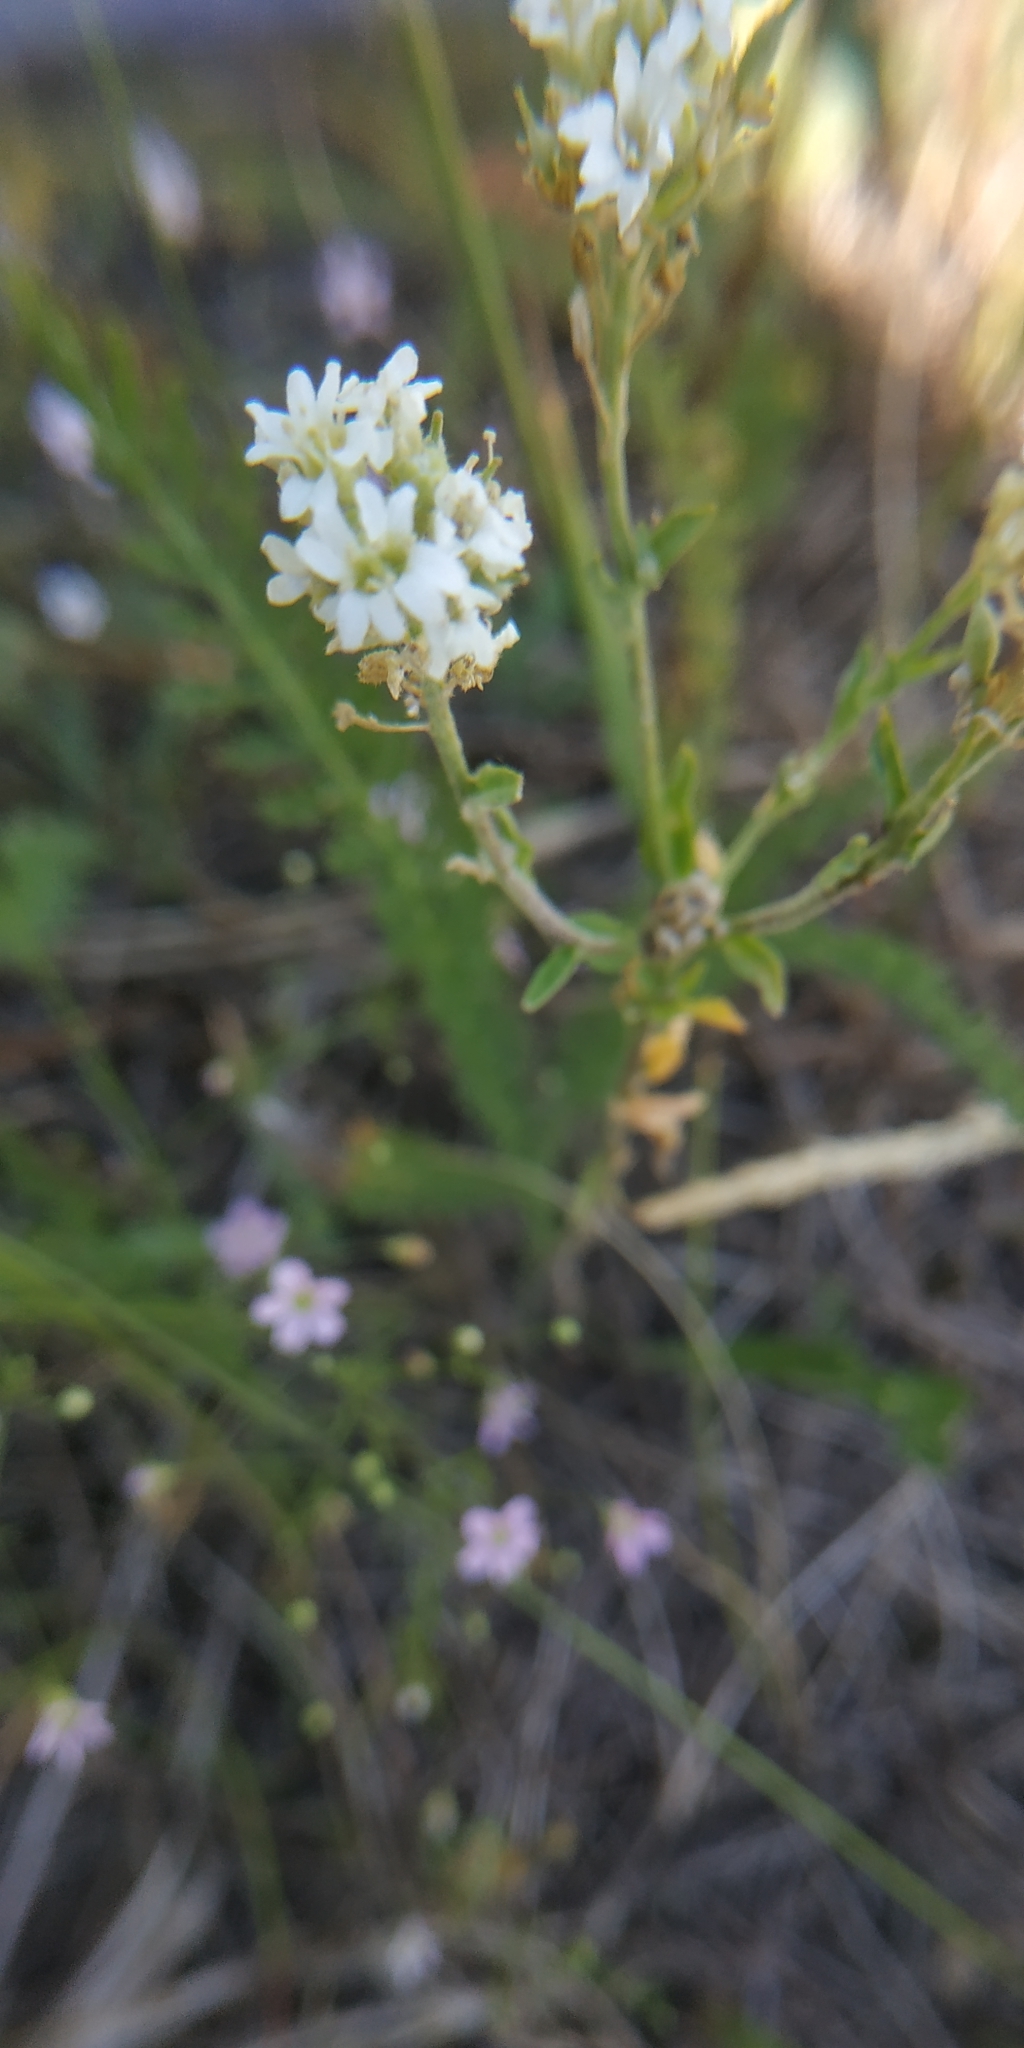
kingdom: Plantae
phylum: Tracheophyta
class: Magnoliopsida
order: Brassicales
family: Brassicaceae
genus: Berteroa
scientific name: Berteroa incana
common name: Hoary alison
